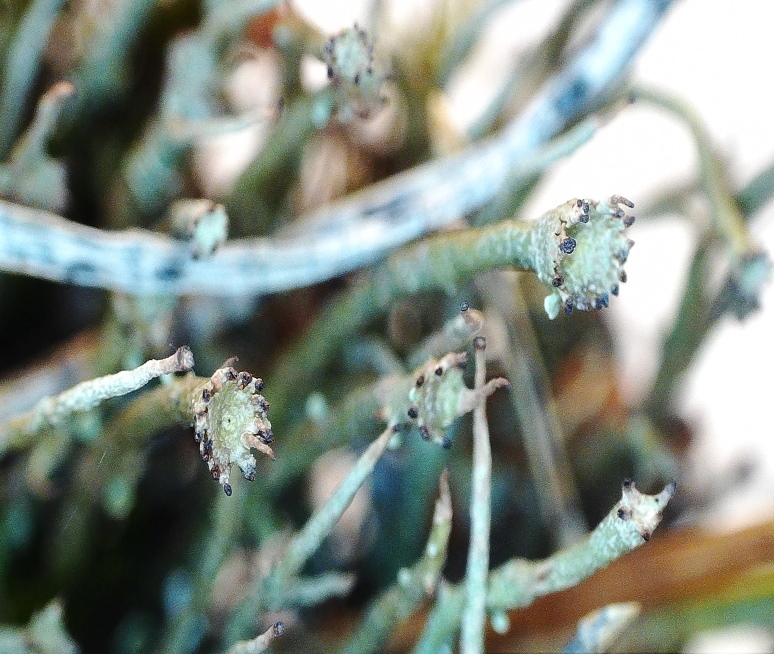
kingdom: Fungi
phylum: Ascomycota
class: Lecanoromycetes
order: Lecanorales
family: Cladoniaceae
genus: Cladonia
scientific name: Cladonia gracilis
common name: Smooth clad lichen
